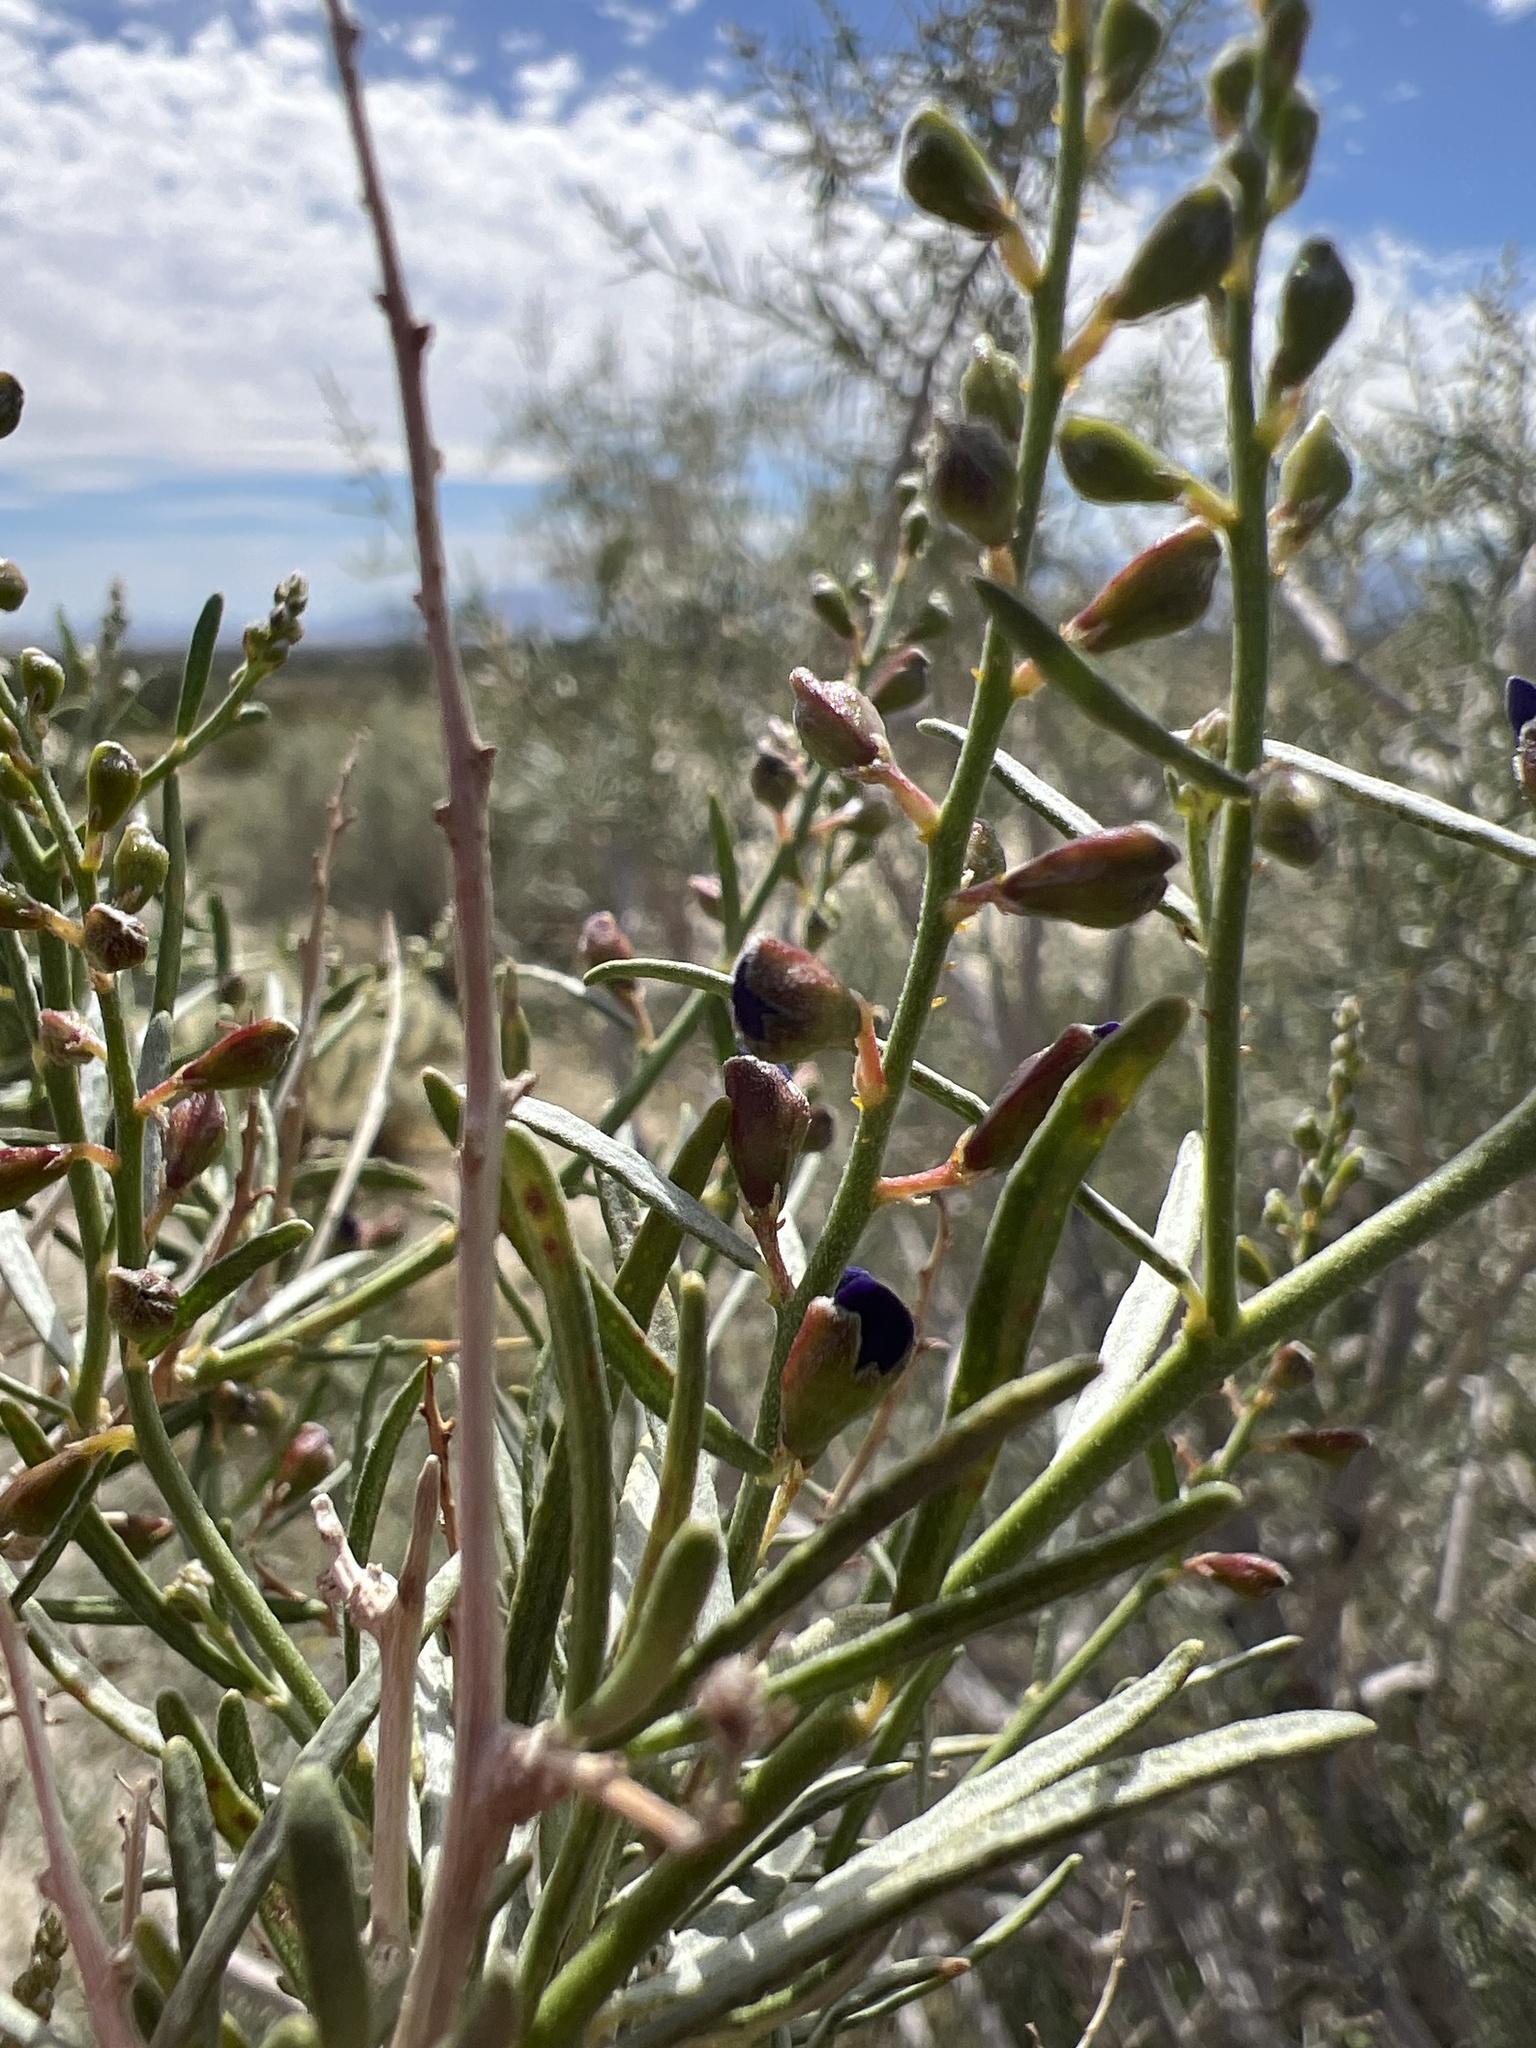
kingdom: Plantae
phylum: Tracheophyta
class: Magnoliopsida
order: Fabales
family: Fabaceae
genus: Psorothamnus
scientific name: Psorothamnus schottii
